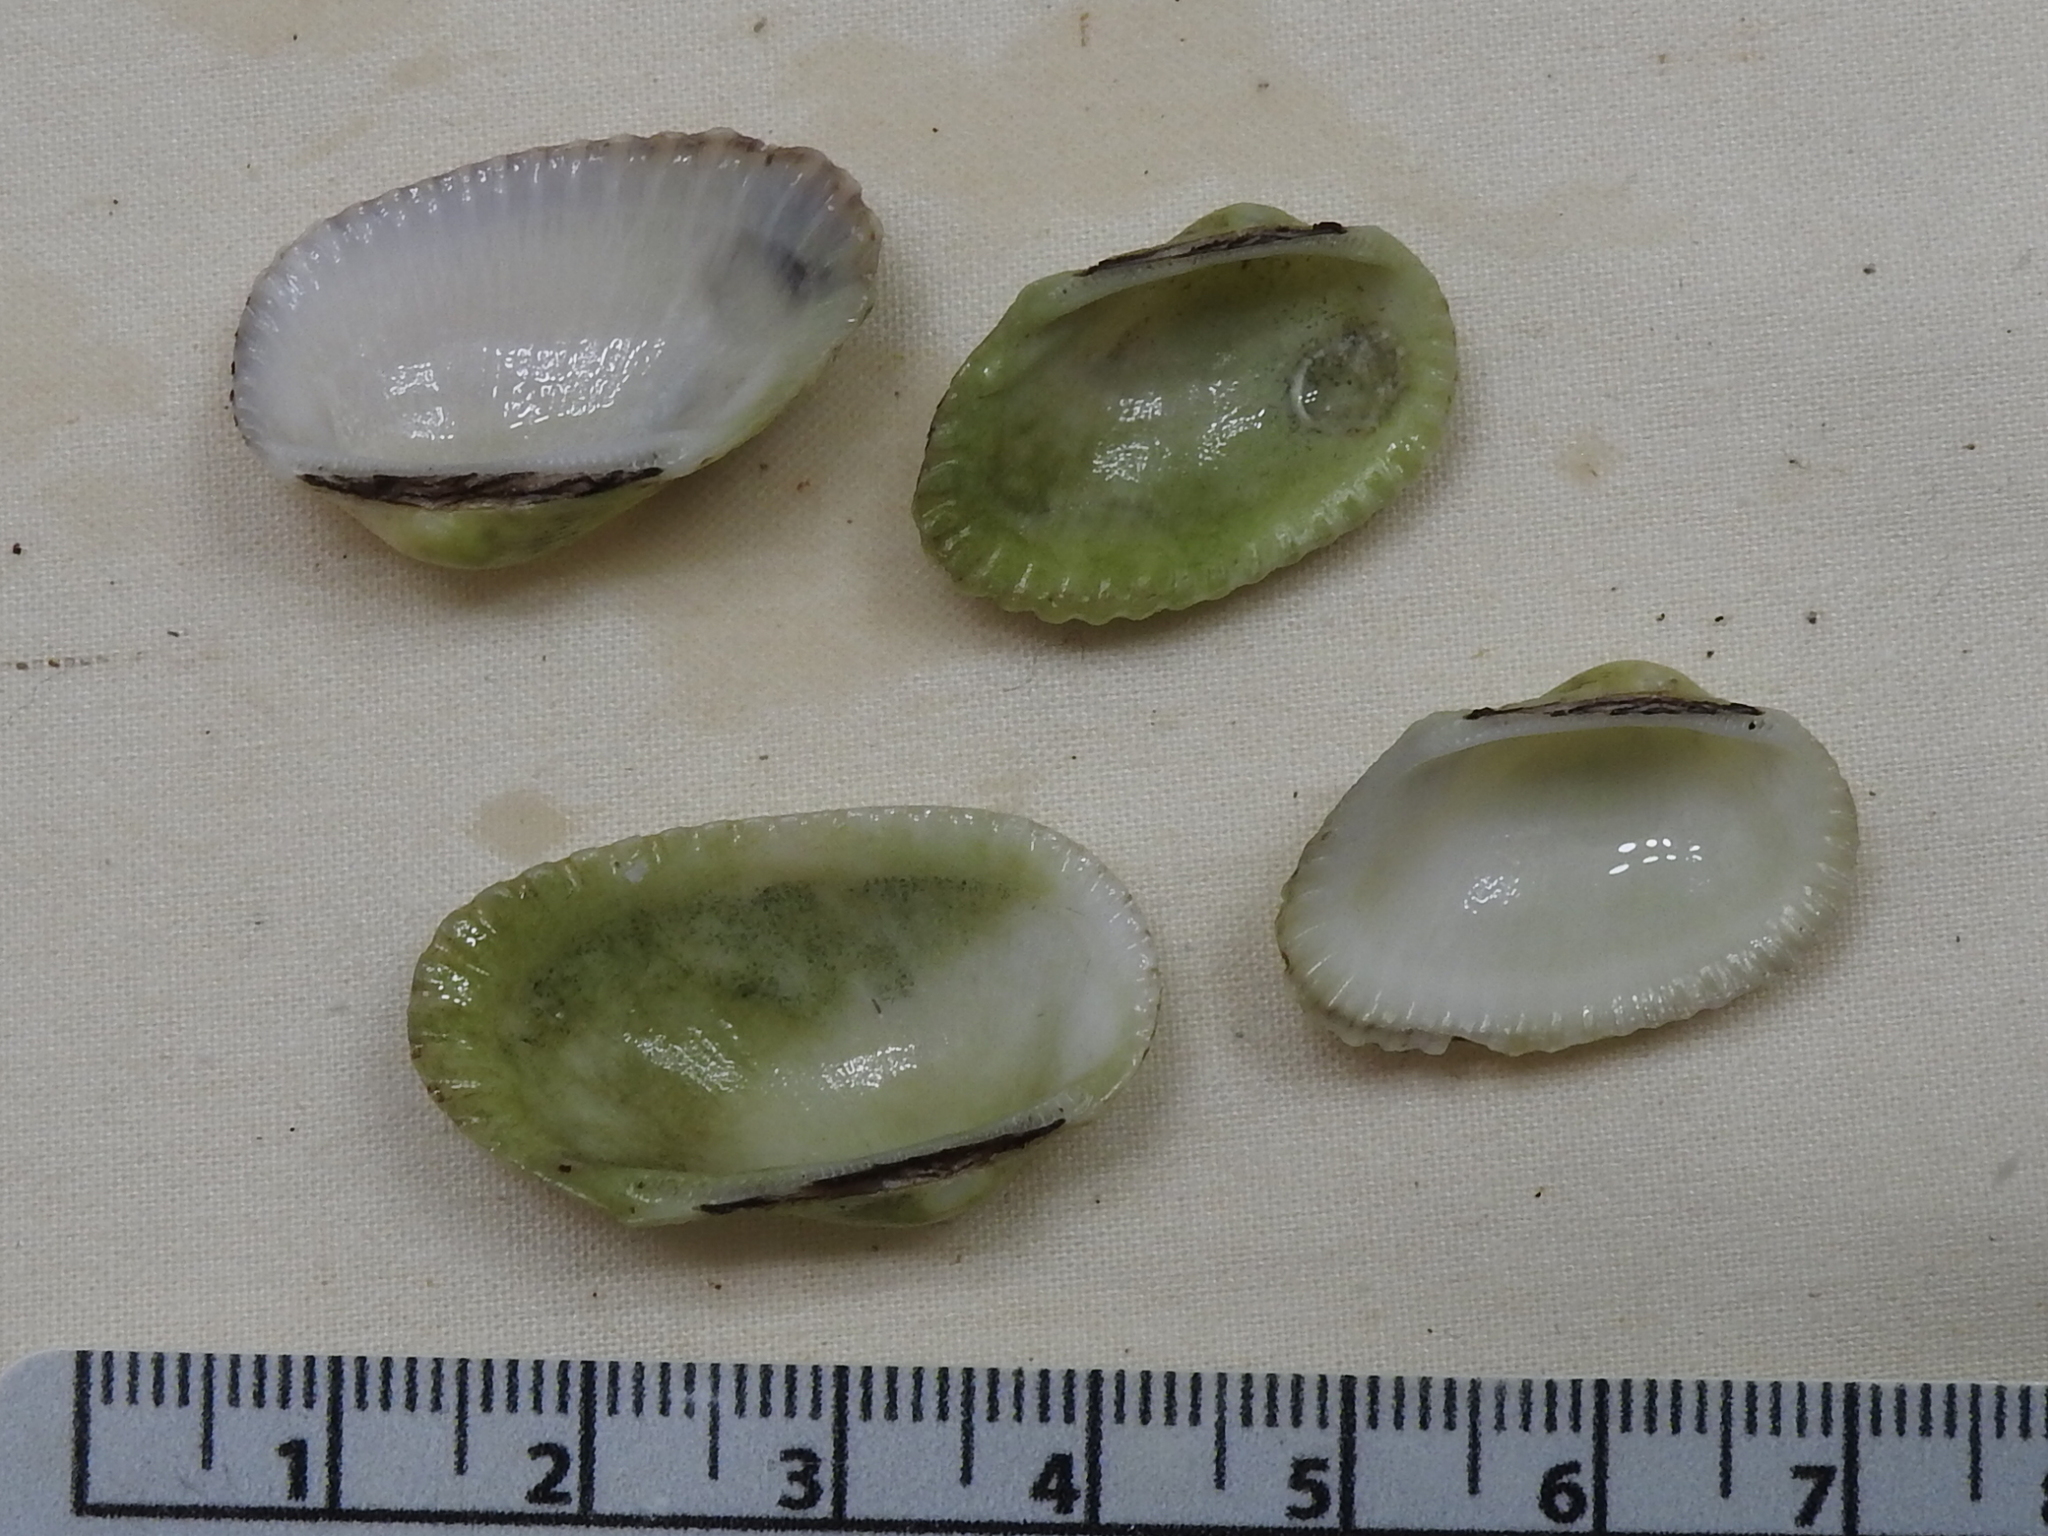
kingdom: Animalia
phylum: Mollusca
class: Bivalvia
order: Arcida
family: Arcidae
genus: Anadara
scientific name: Anadara transversa
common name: Transverse ark
